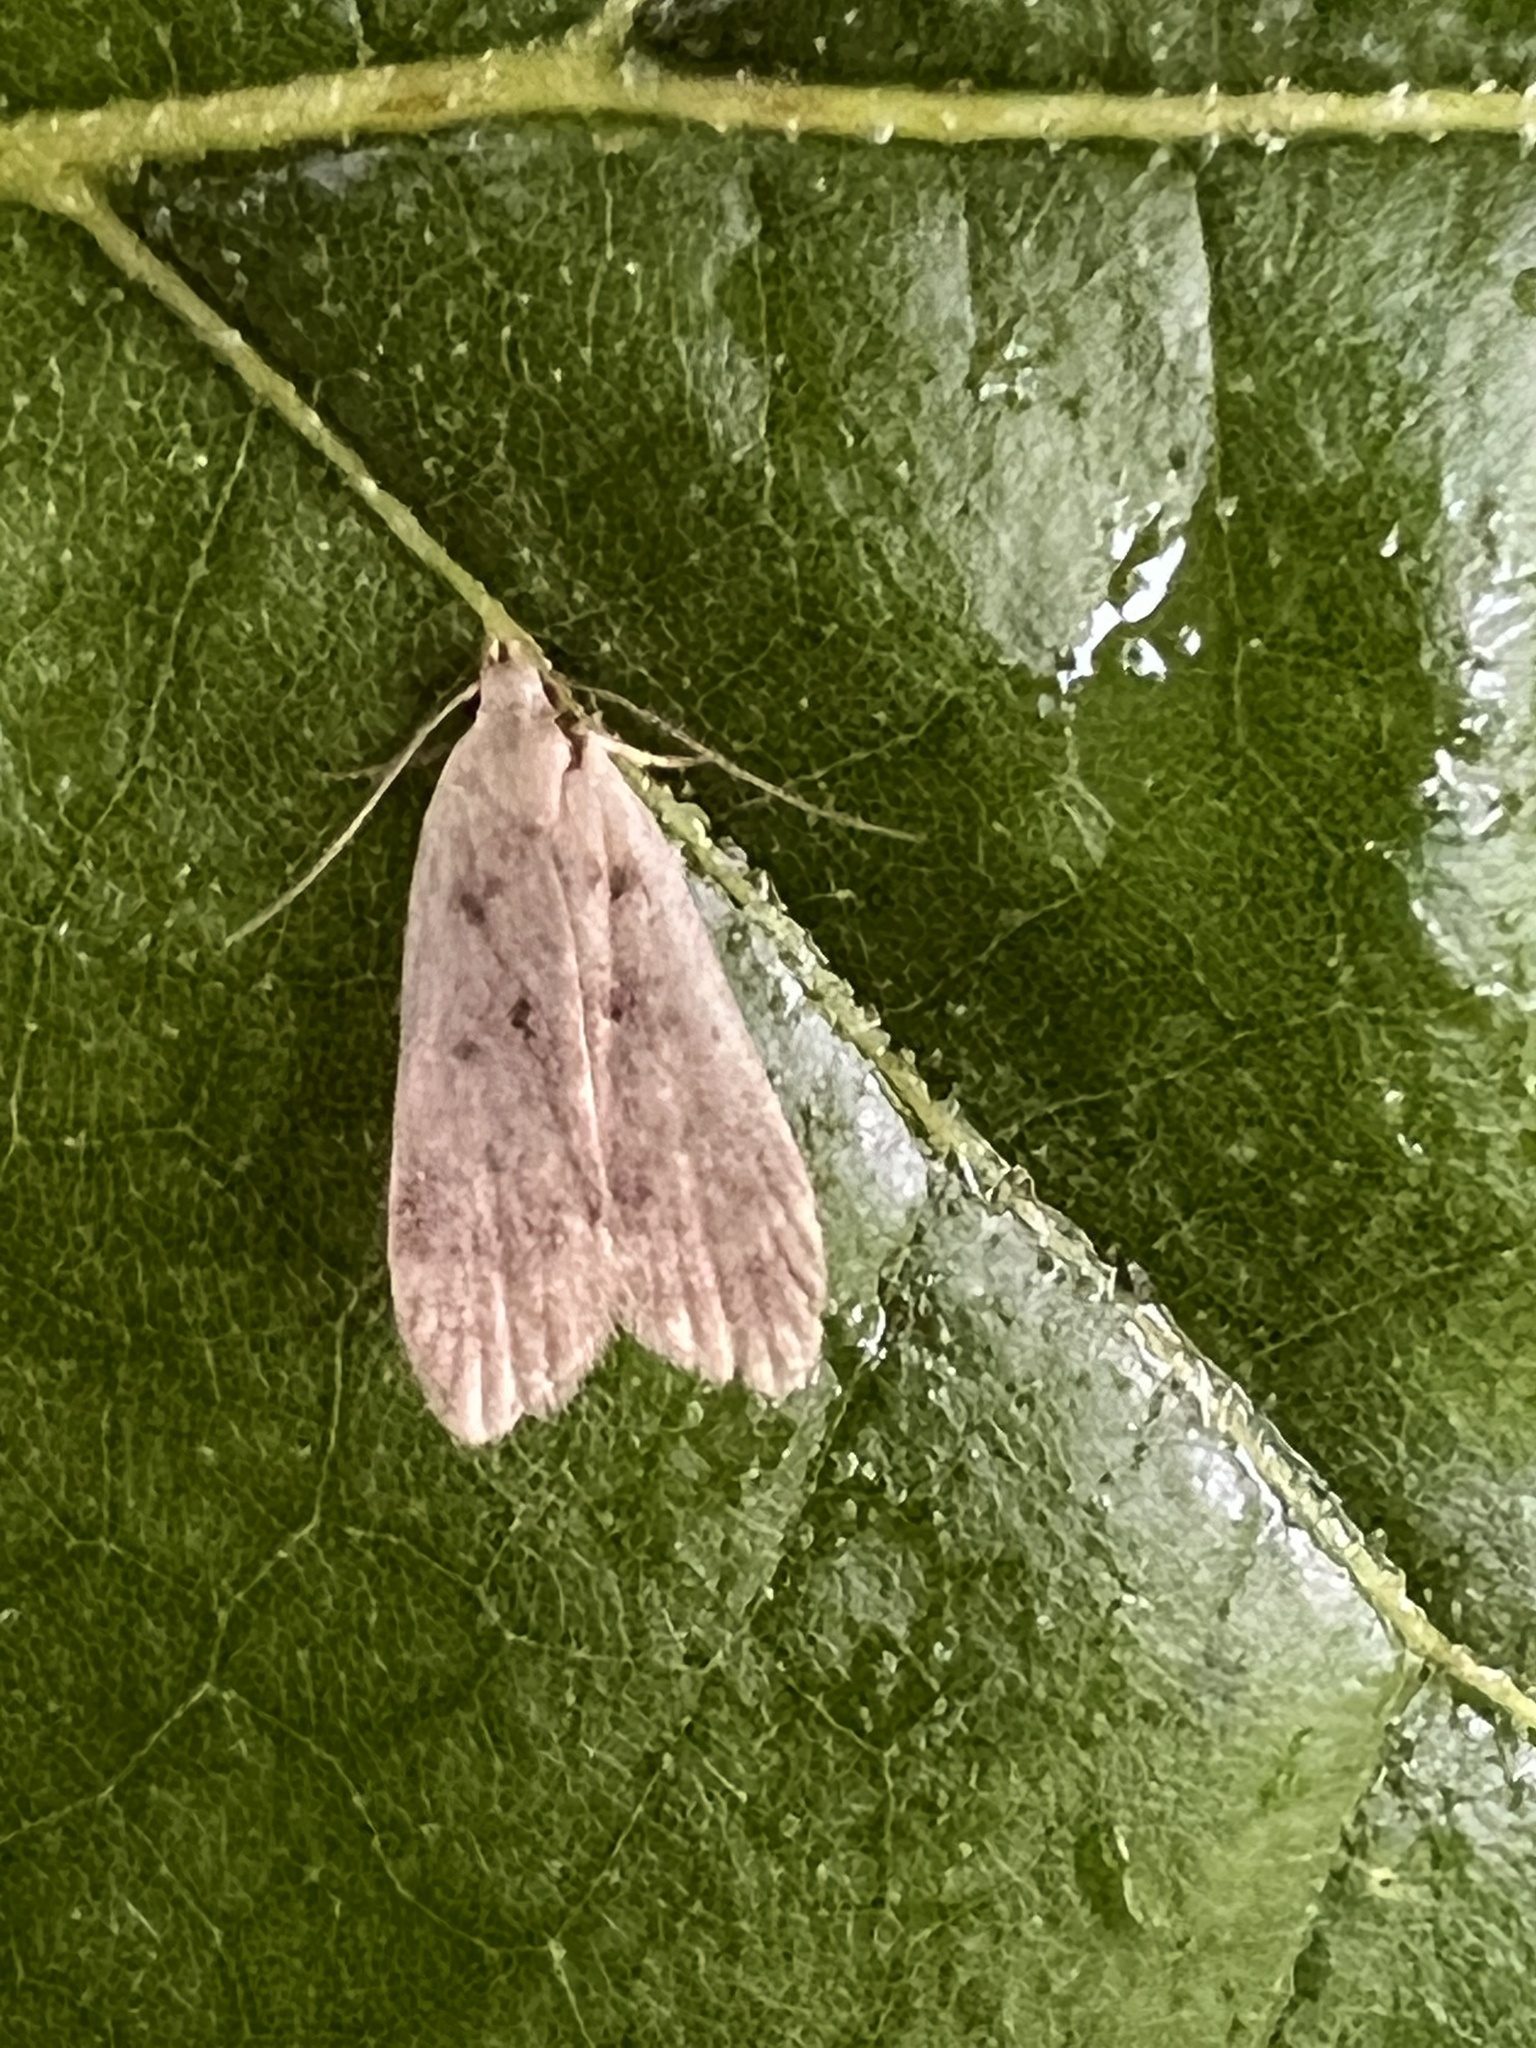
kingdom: Animalia
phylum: Arthropoda
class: Insecta
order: Lepidoptera
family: Gelechiidae
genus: Dichomeris
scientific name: Dichomeris punctidiscellus
